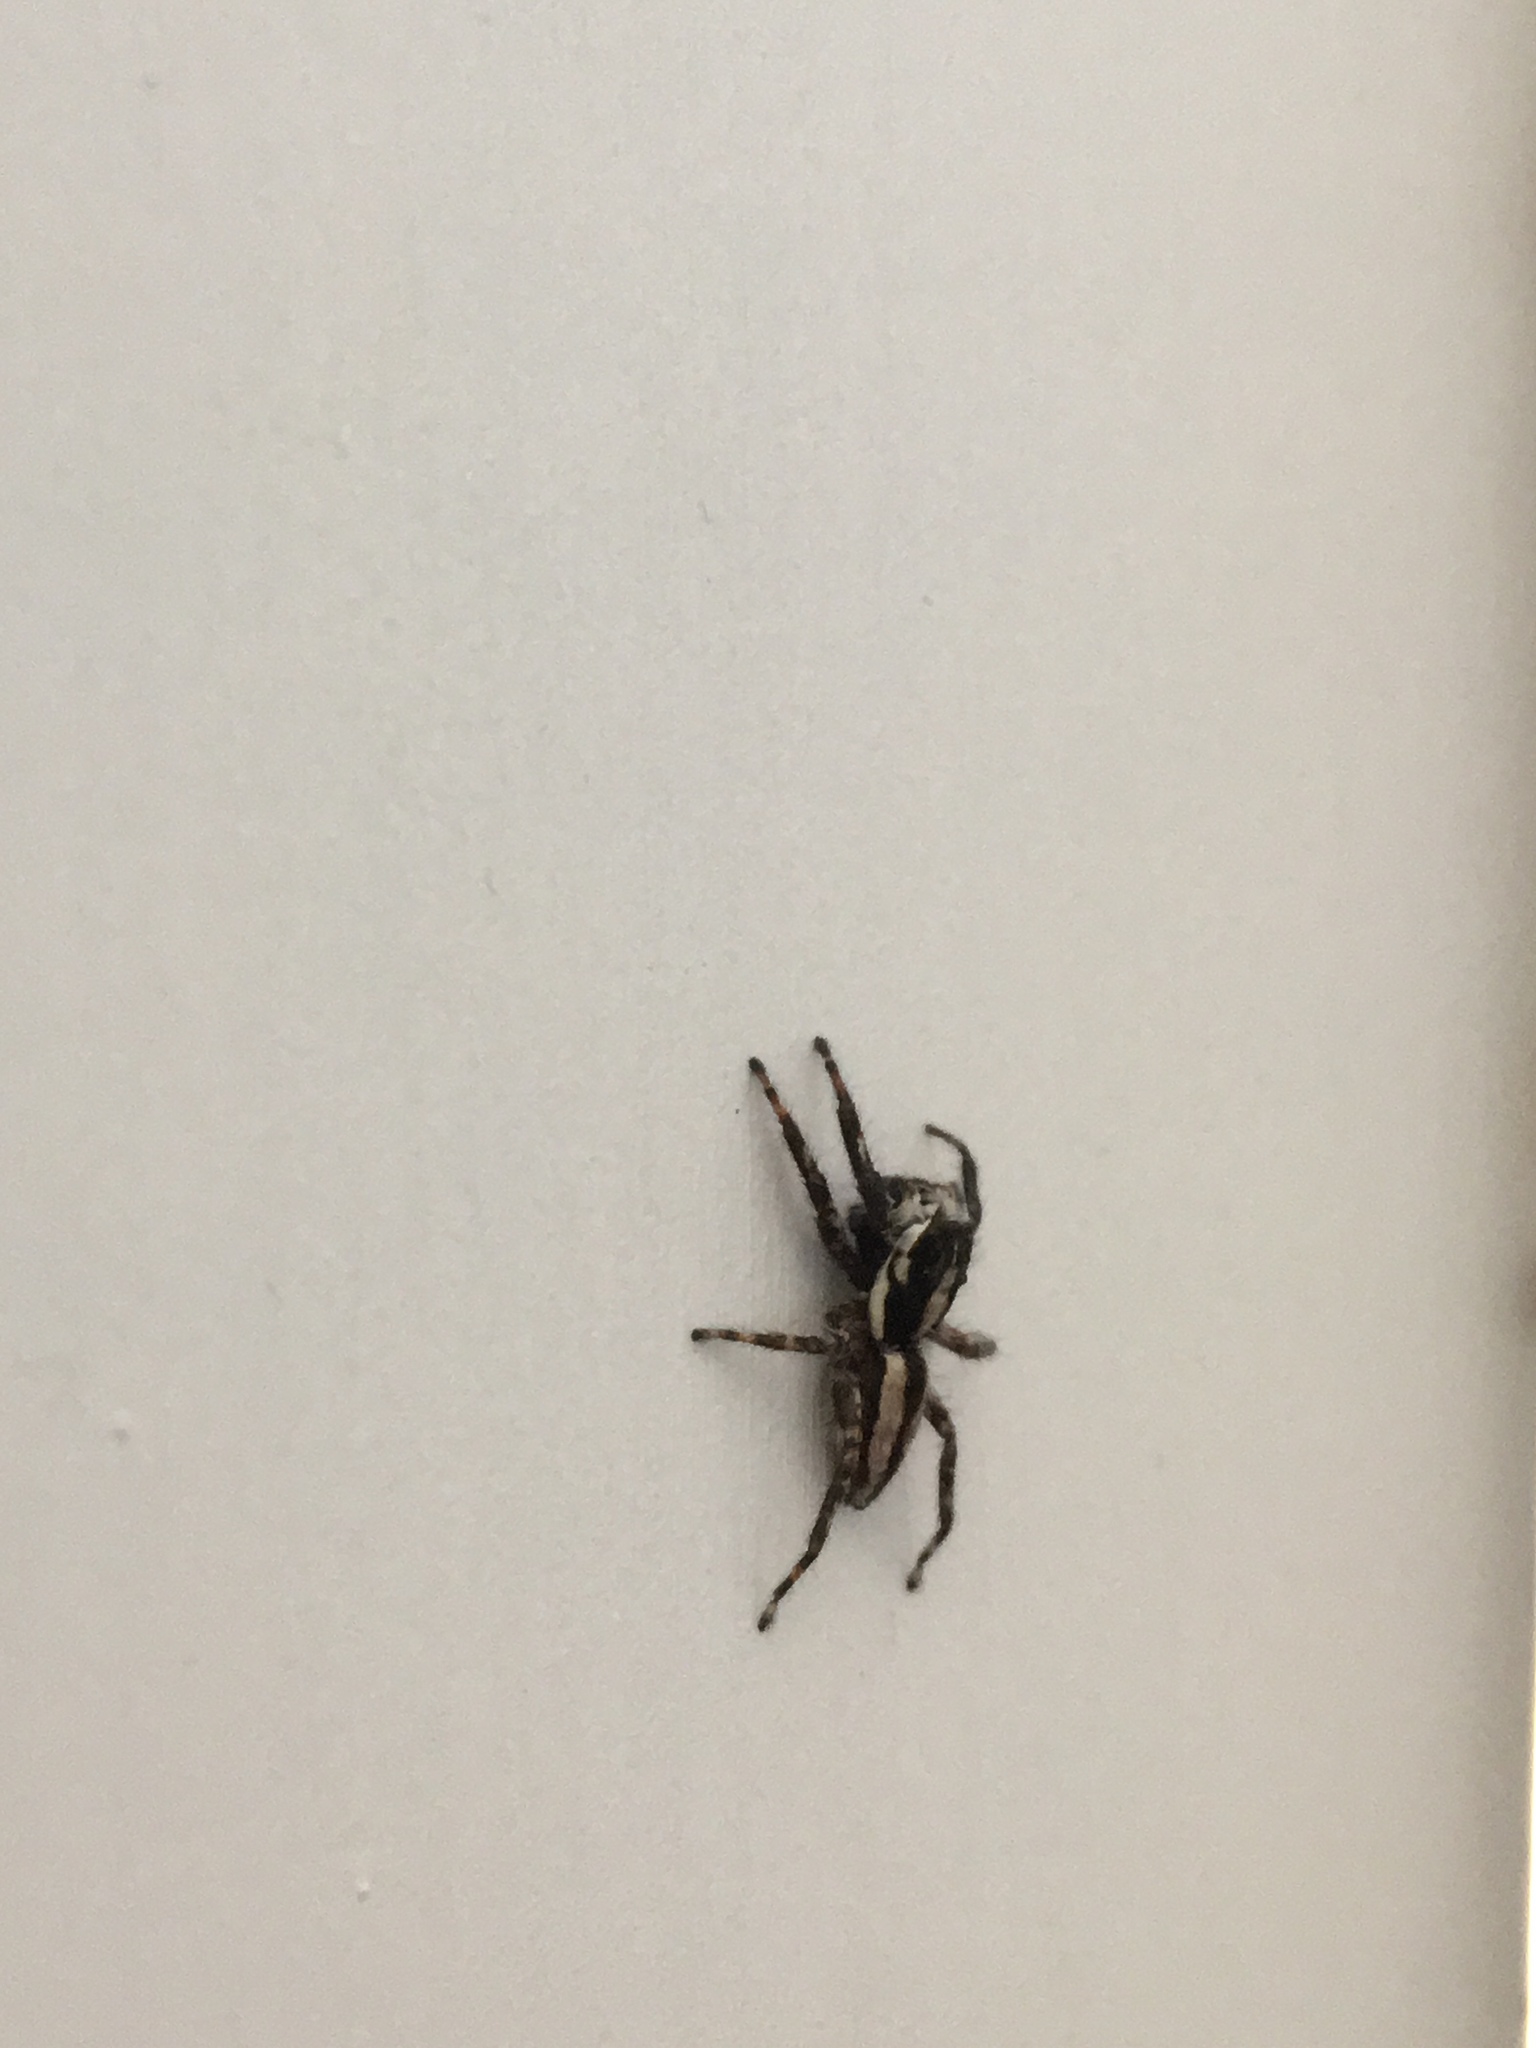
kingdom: Animalia
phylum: Arthropoda
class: Arachnida
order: Araneae
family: Salticidae
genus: Menemerus
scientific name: Menemerus bivittatus
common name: Gray wall jumper
